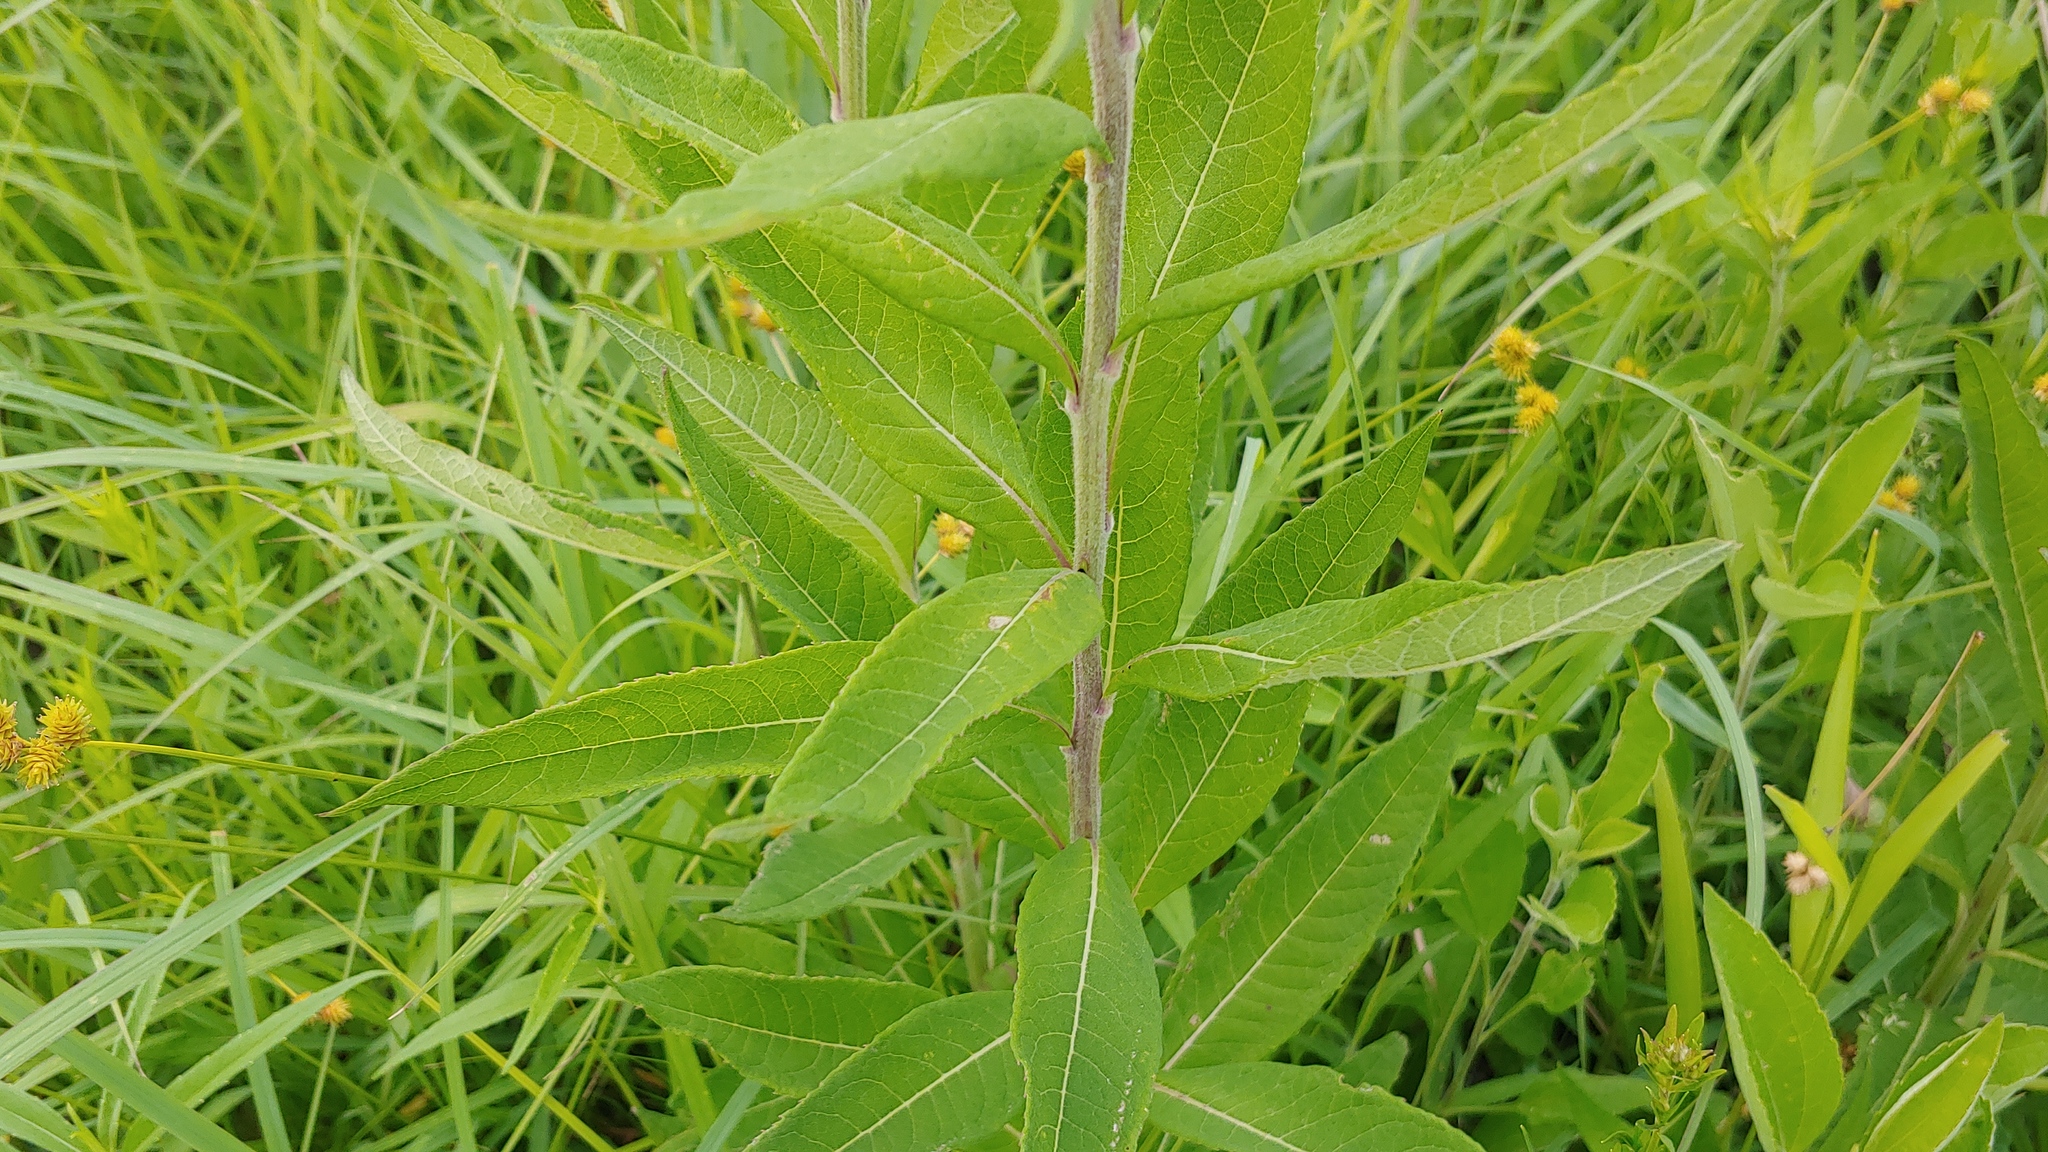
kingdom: Plantae
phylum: Tracheophyta
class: Magnoliopsida
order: Asterales
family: Asteraceae
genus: Vernonia
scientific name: Vernonia missurica
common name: Missouri ironweed
